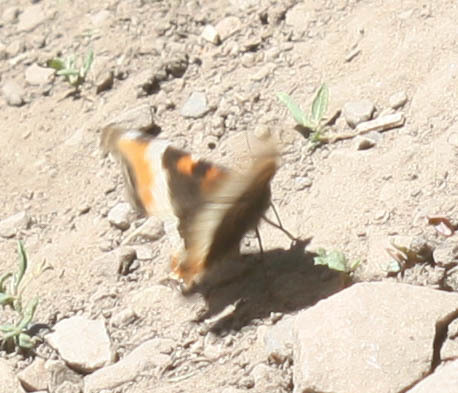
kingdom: Animalia
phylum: Arthropoda
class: Insecta
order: Lepidoptera
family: Nymphalidae
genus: Aglais
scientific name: Aglais milberti
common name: Milbert's tortoiseshell
